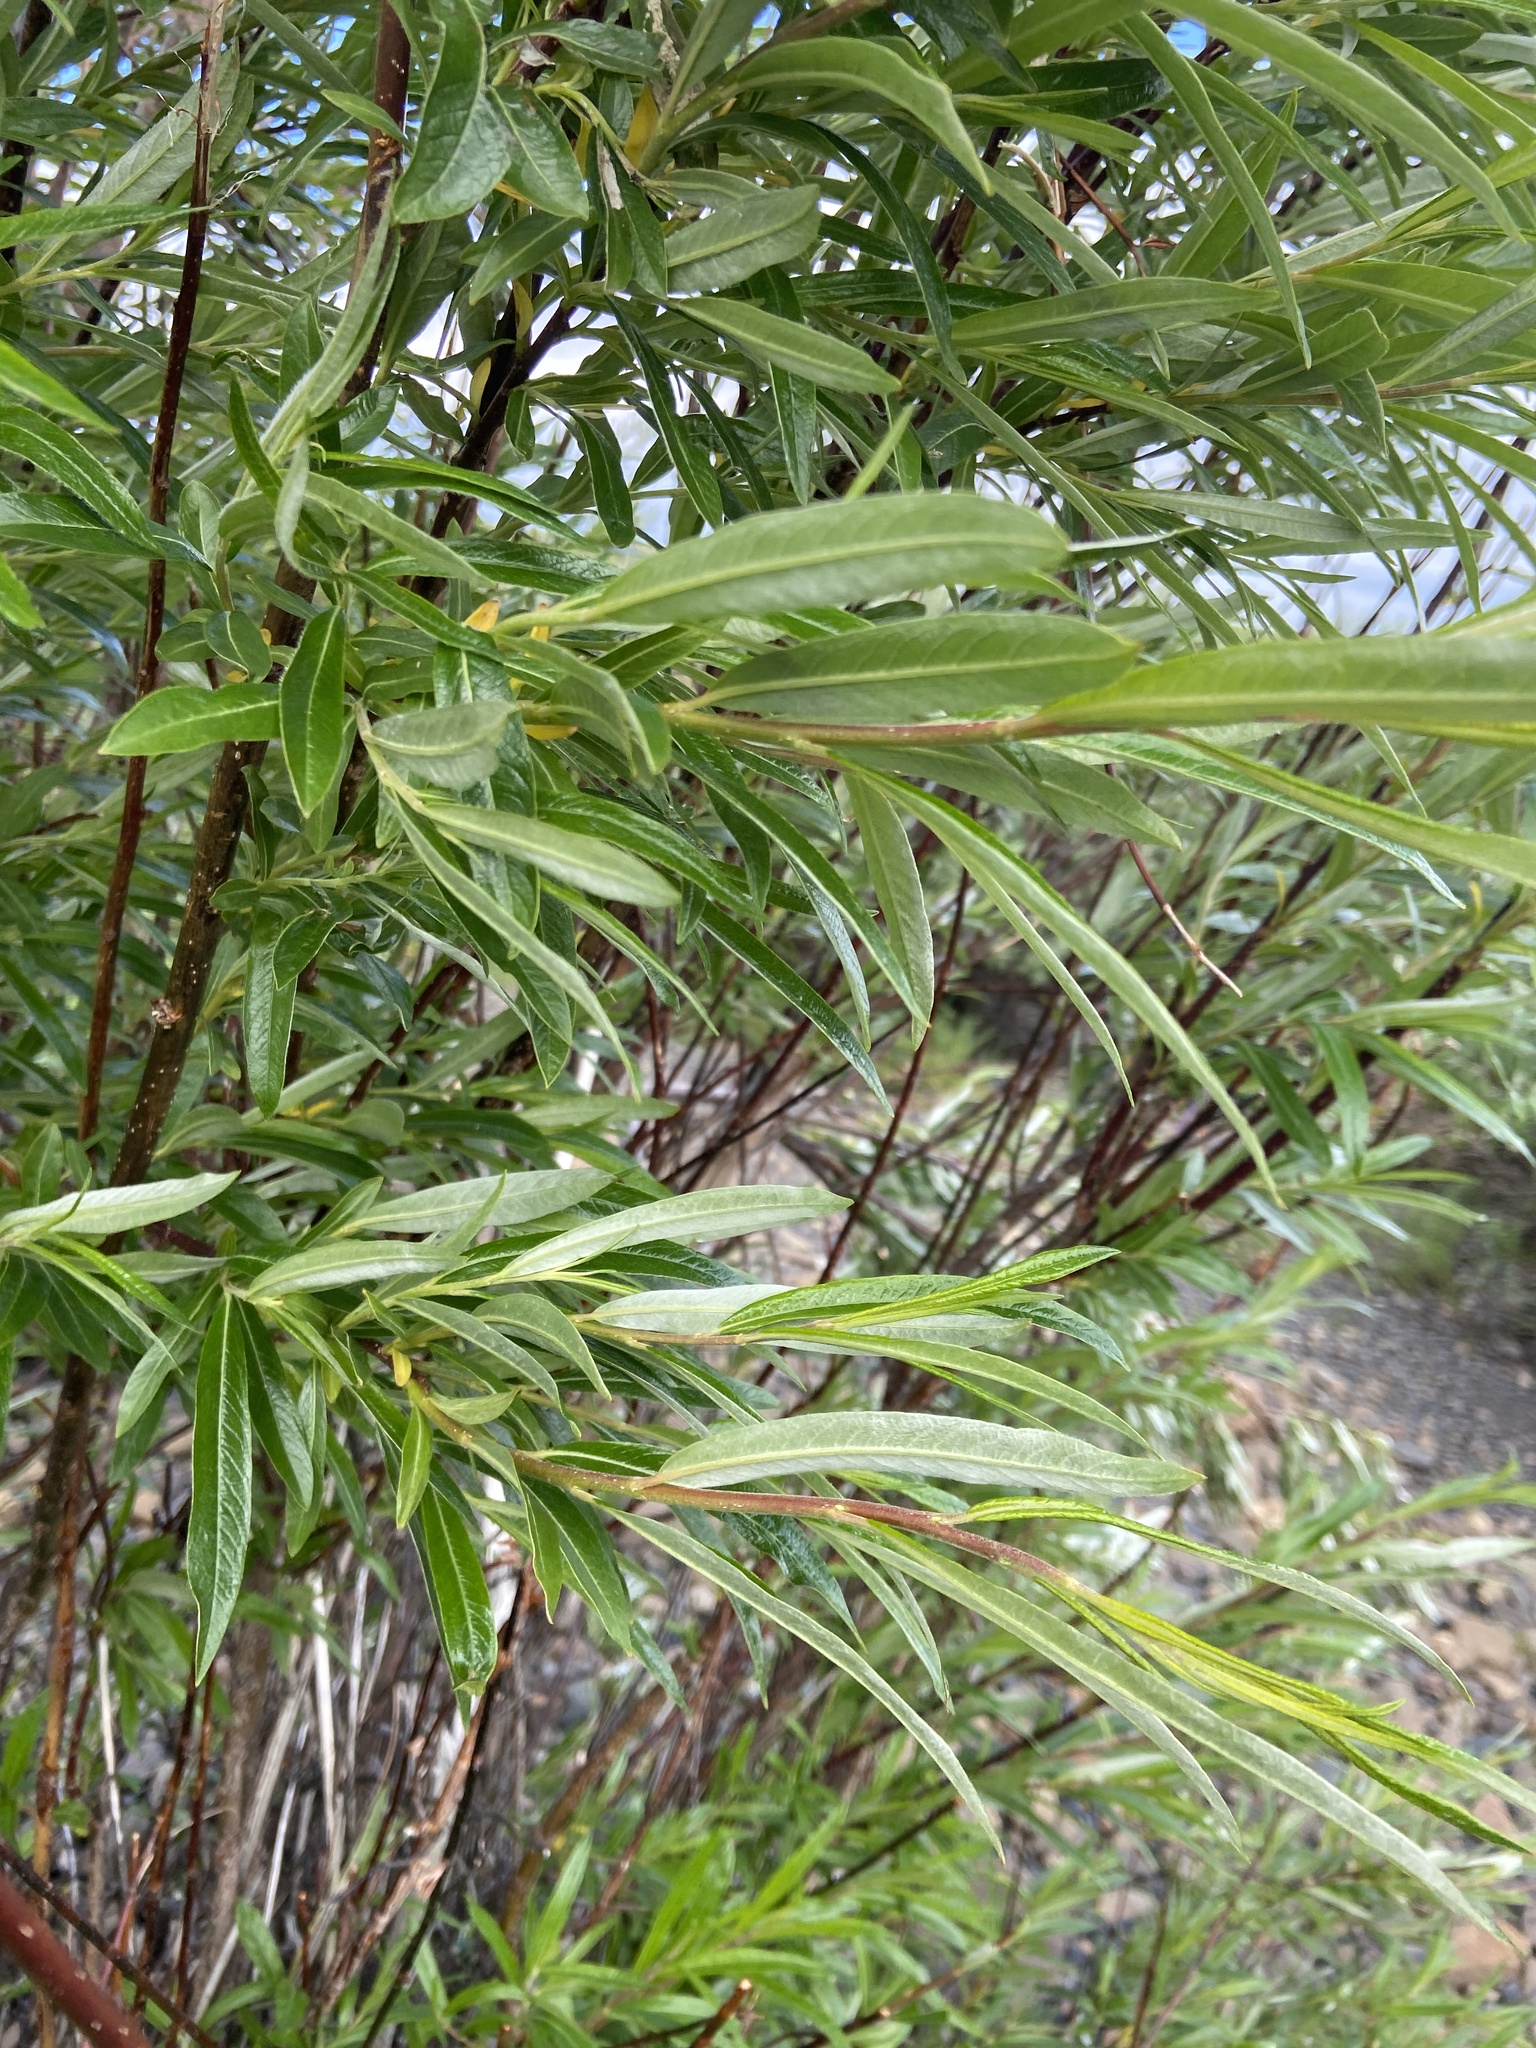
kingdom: Plantae
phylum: Tracheophyta
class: Magnoliopsida
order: Malpighiales
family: Salicaceae
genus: Salix
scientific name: Salix schwerinii
